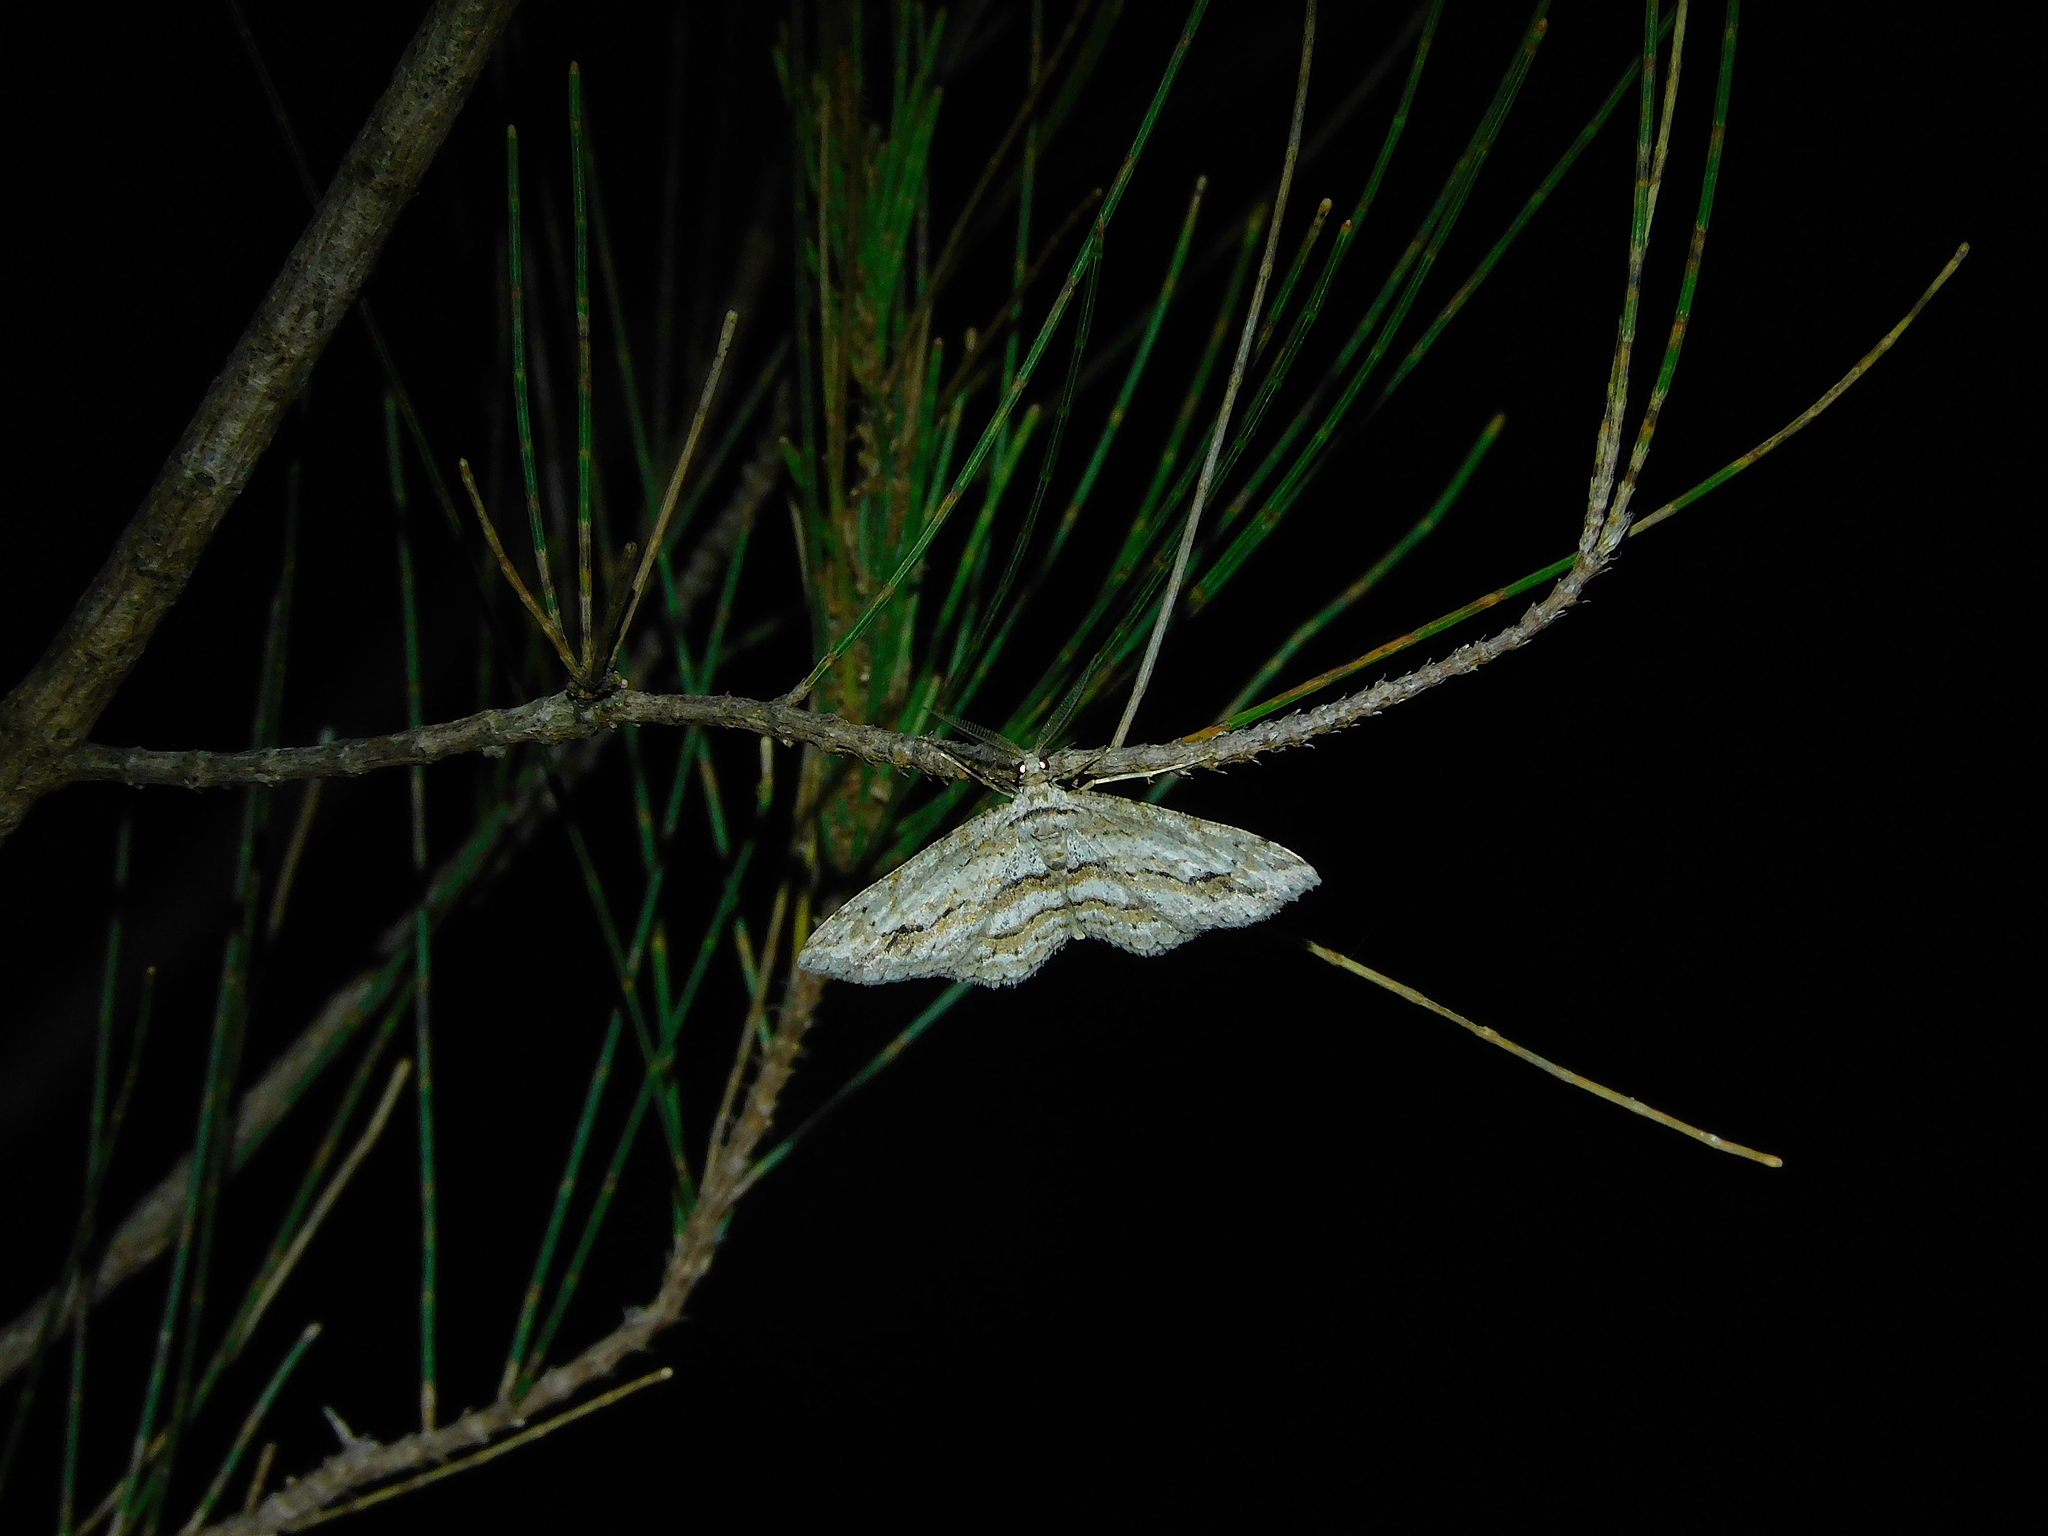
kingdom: Animalia
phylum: Arthropoda
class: Insecta
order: Lepidoptera
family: Geometridae
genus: Didymoctenia
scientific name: Didymoctenia exsuperata
